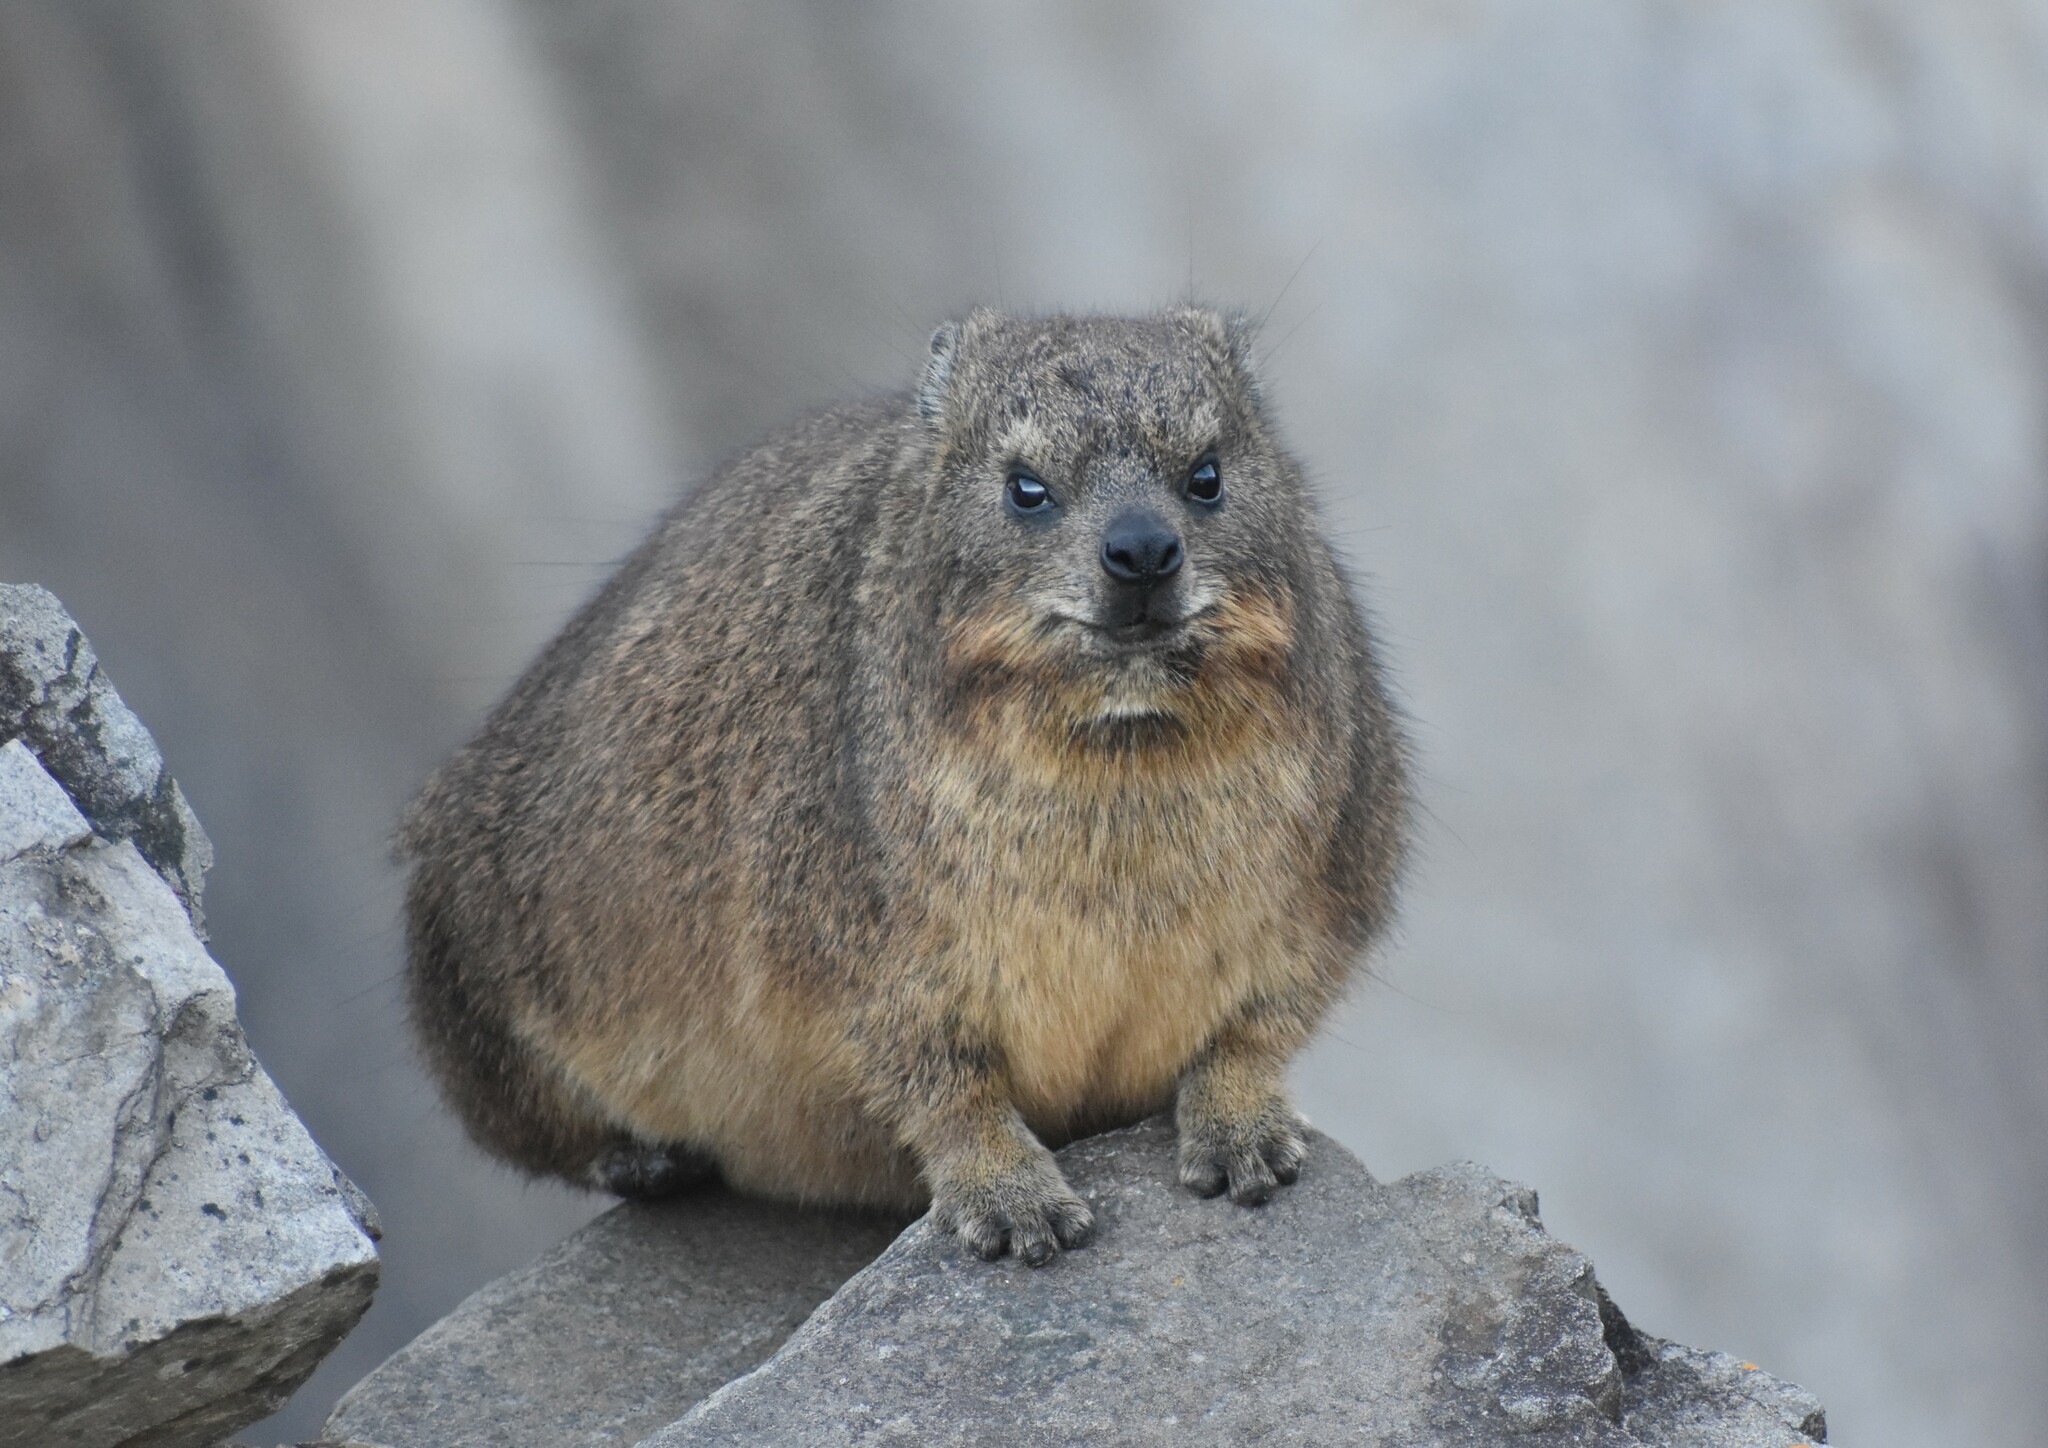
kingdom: Animalia
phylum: Chordata
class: Mammalia
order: Hyracoidea
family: Procaviidae
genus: Procavia
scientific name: Procavia capensis
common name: Rock hyrax
